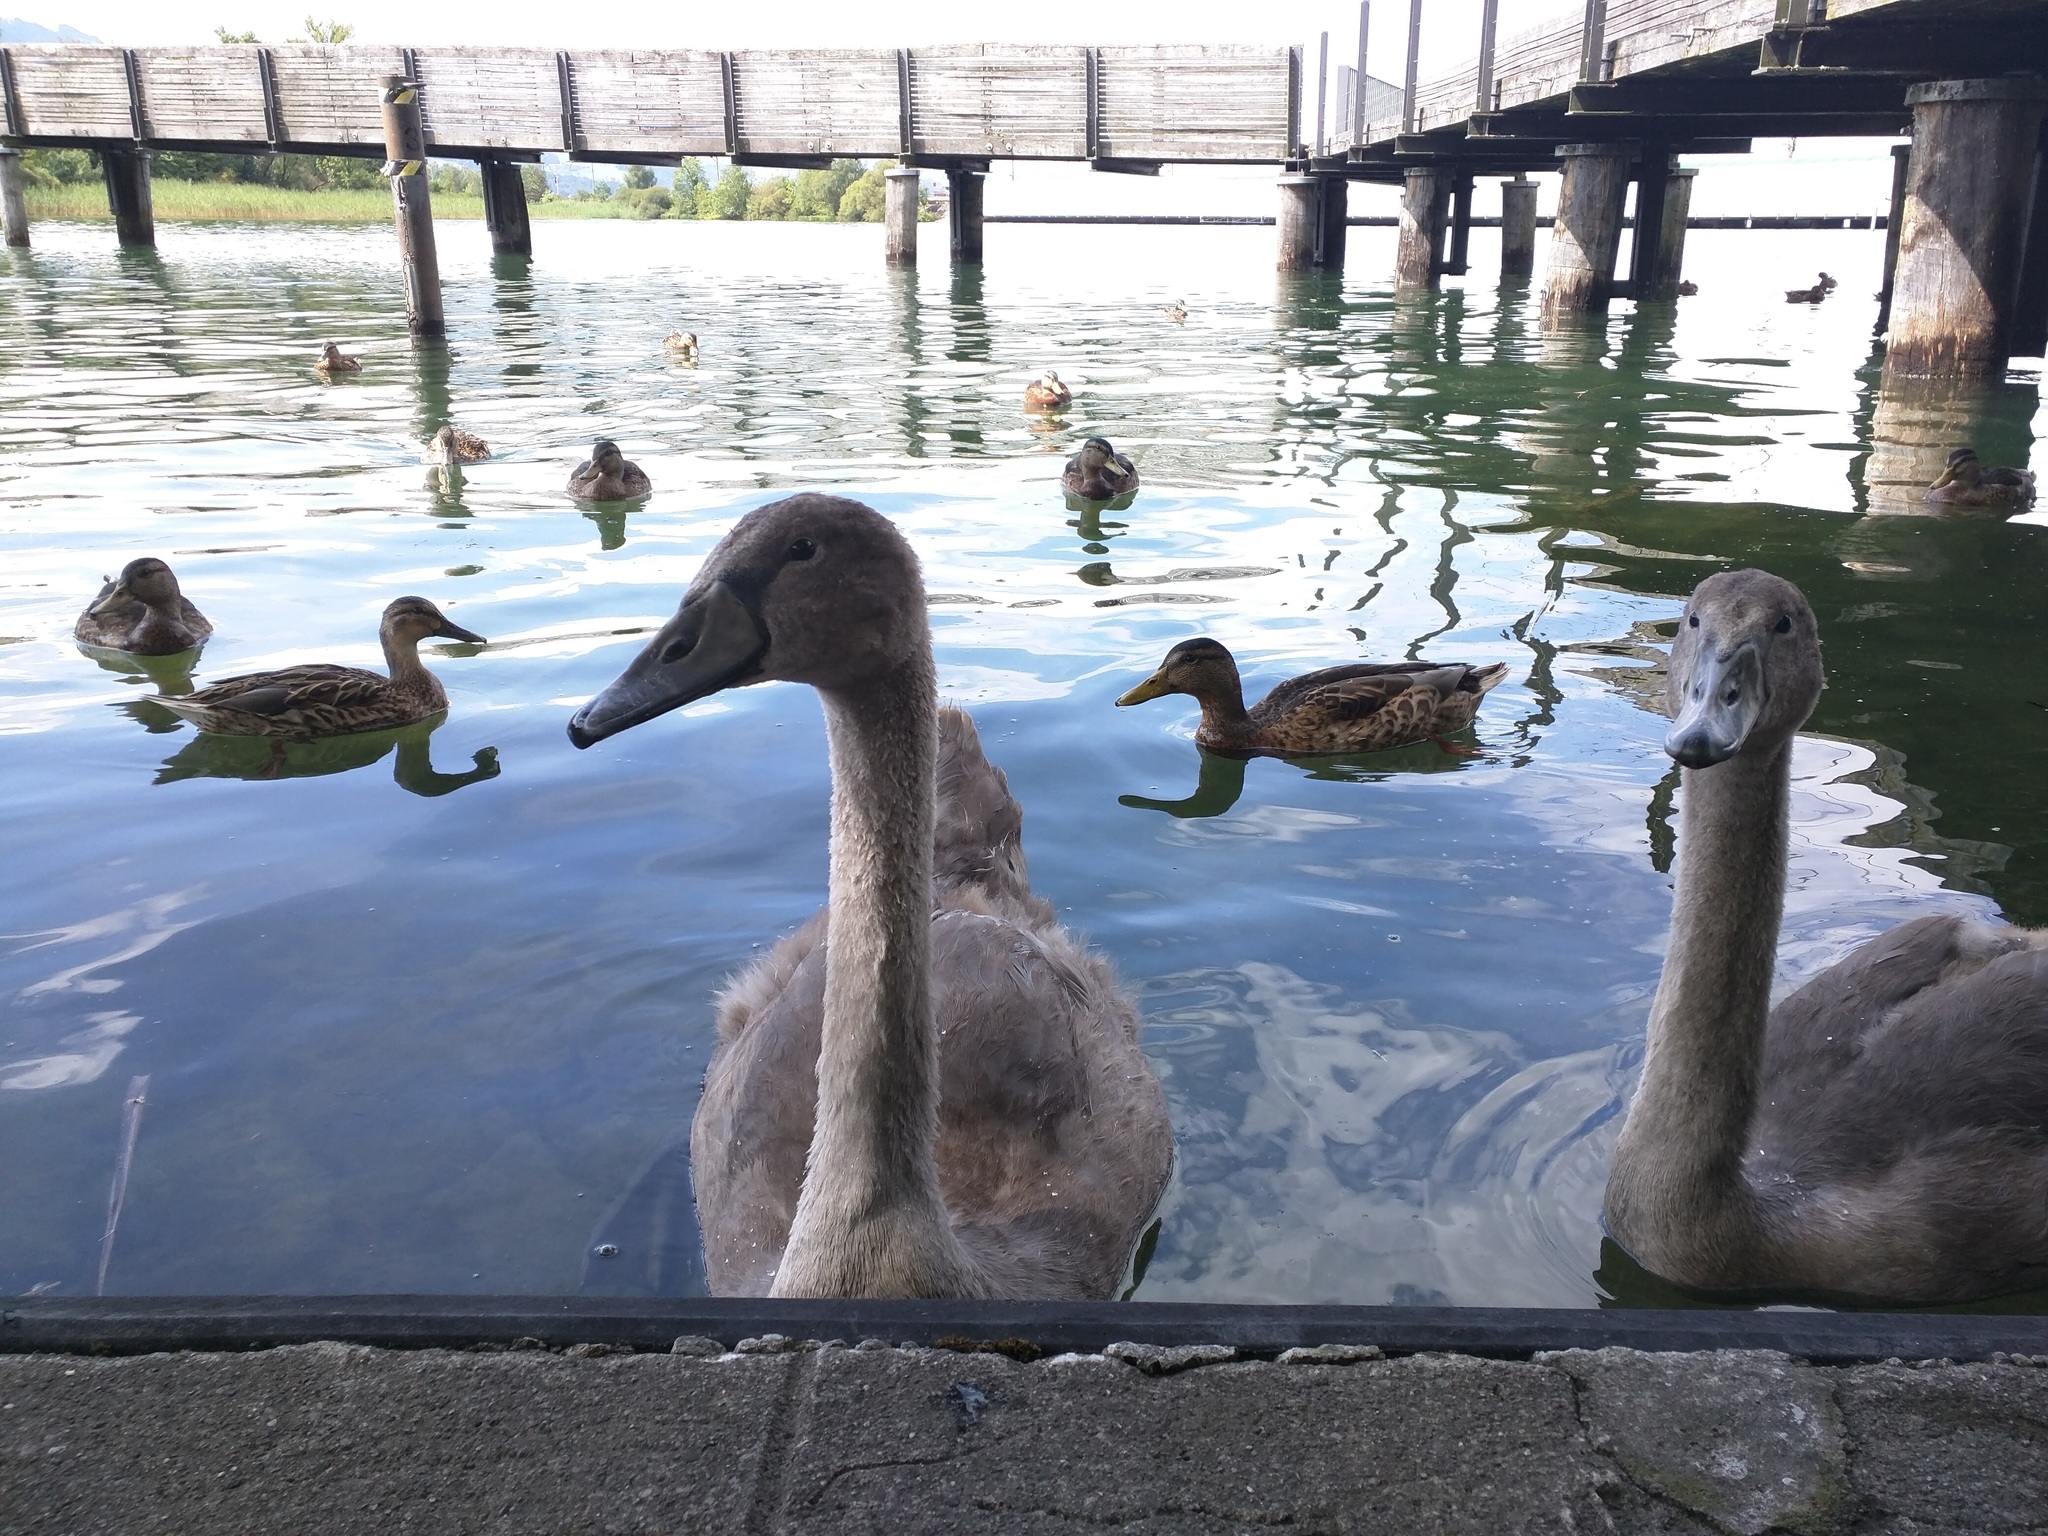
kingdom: Animalia
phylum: Chordata
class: Aves
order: Anseriformes
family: Anatidae
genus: Cygnus
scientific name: Cygnus olor
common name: Mute swan
